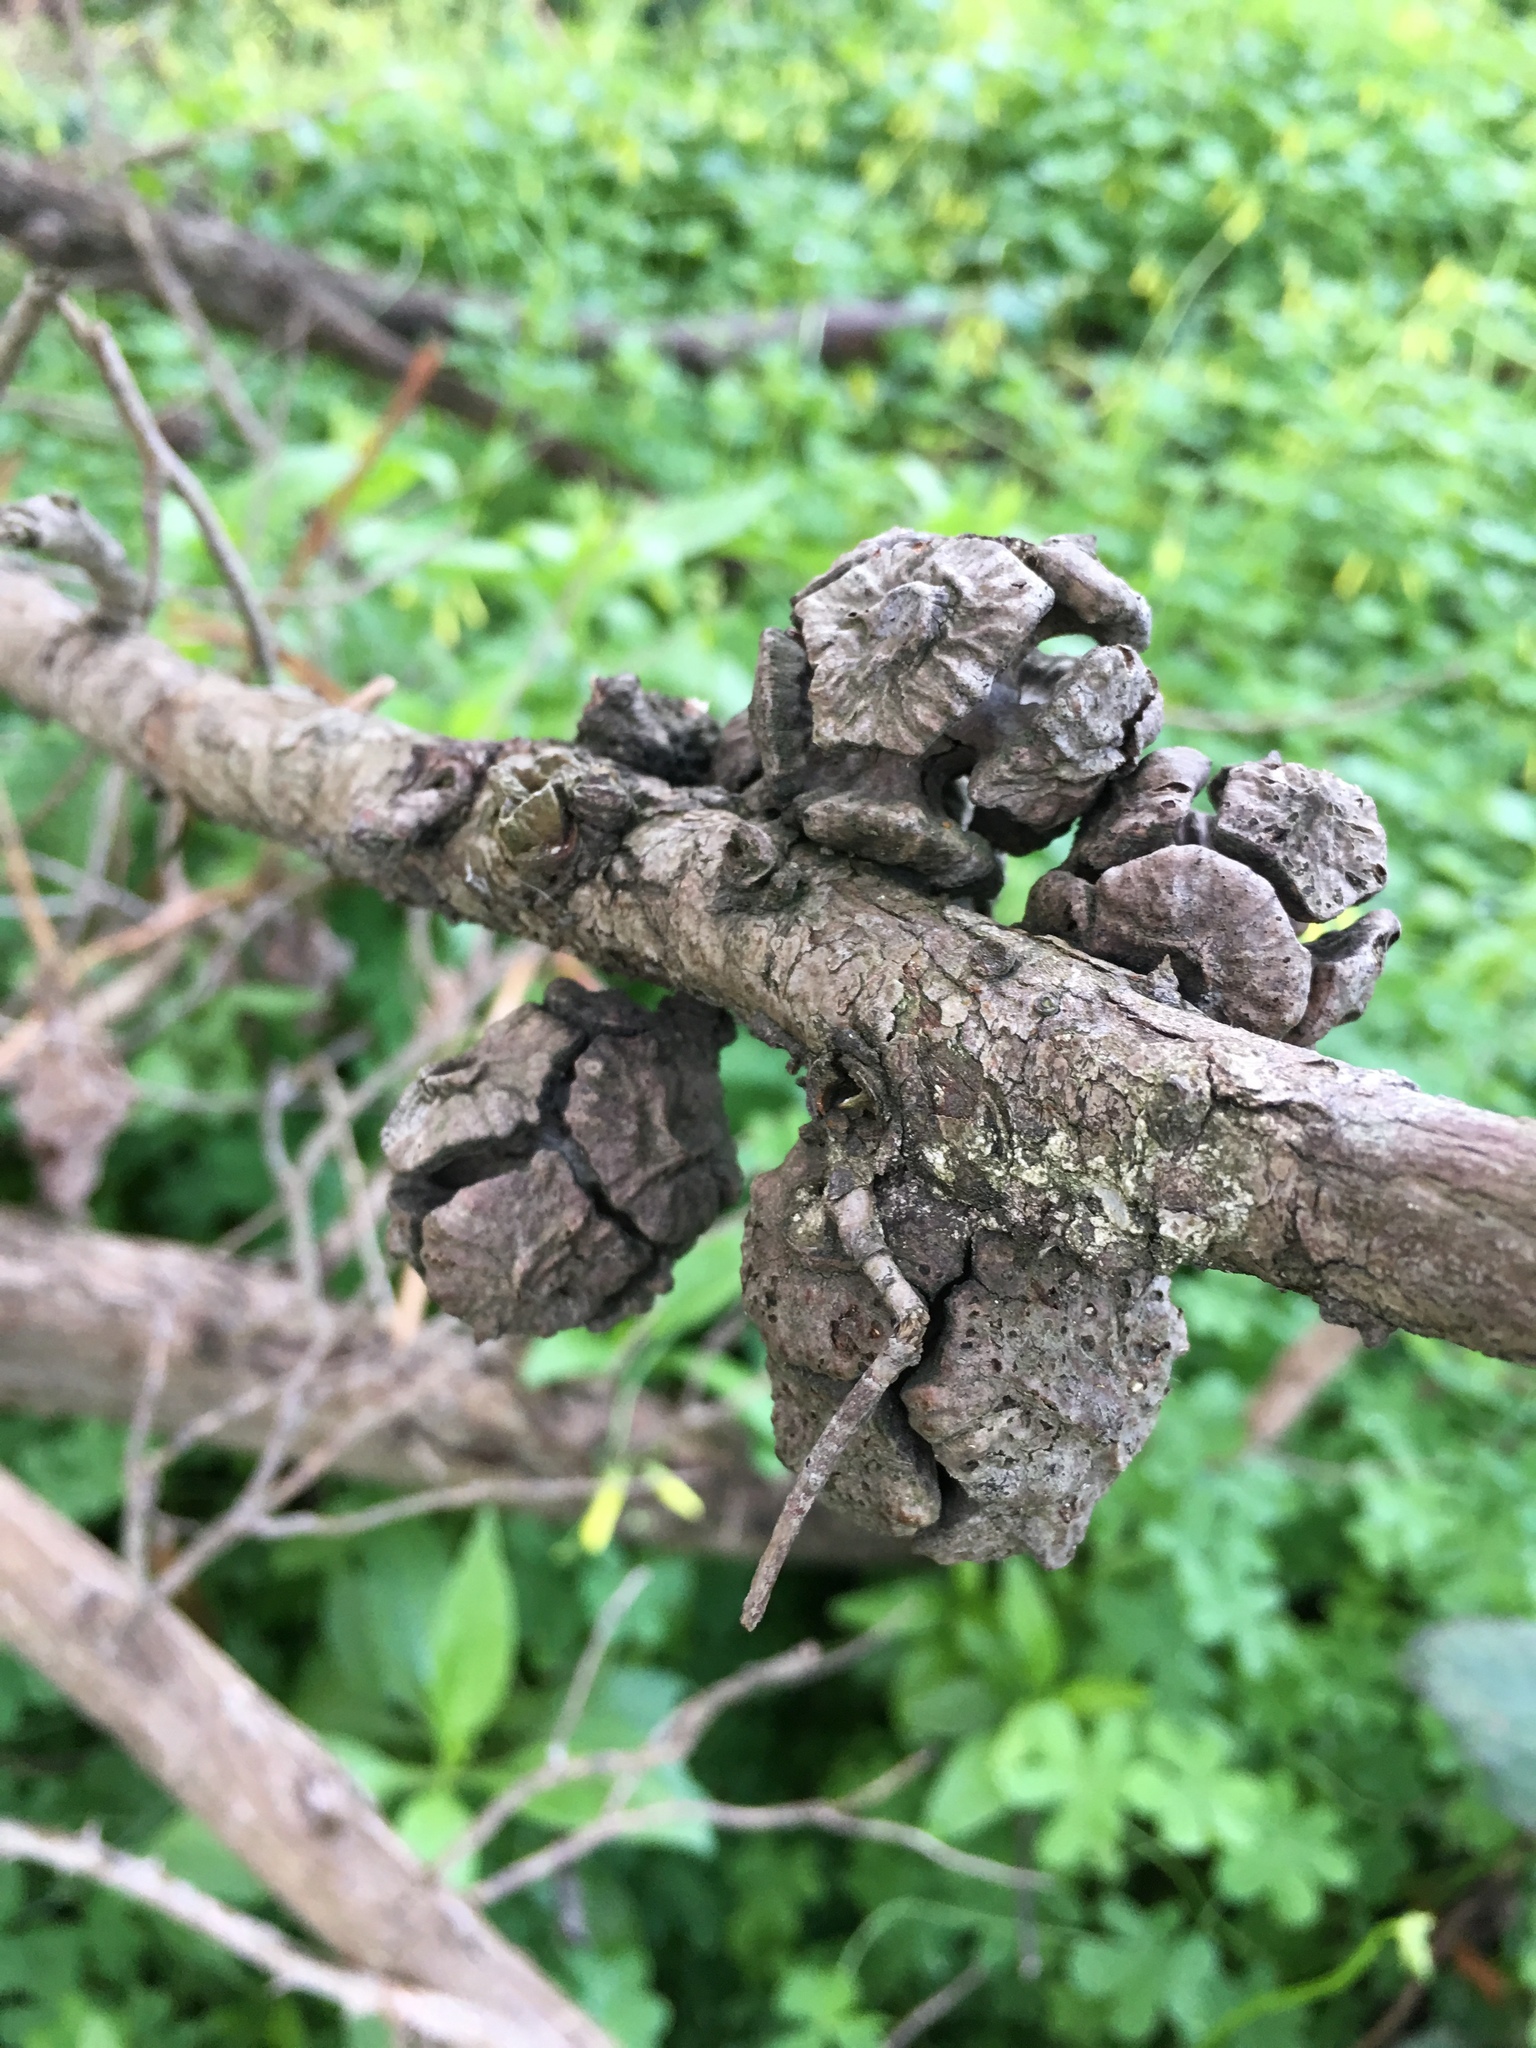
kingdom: Plantae
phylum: Tracheophyta
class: Pinopsida
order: Pinales
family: Cupressaceae
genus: Cupressus
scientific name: Cupressus macrocarpa
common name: Monterey cypress
